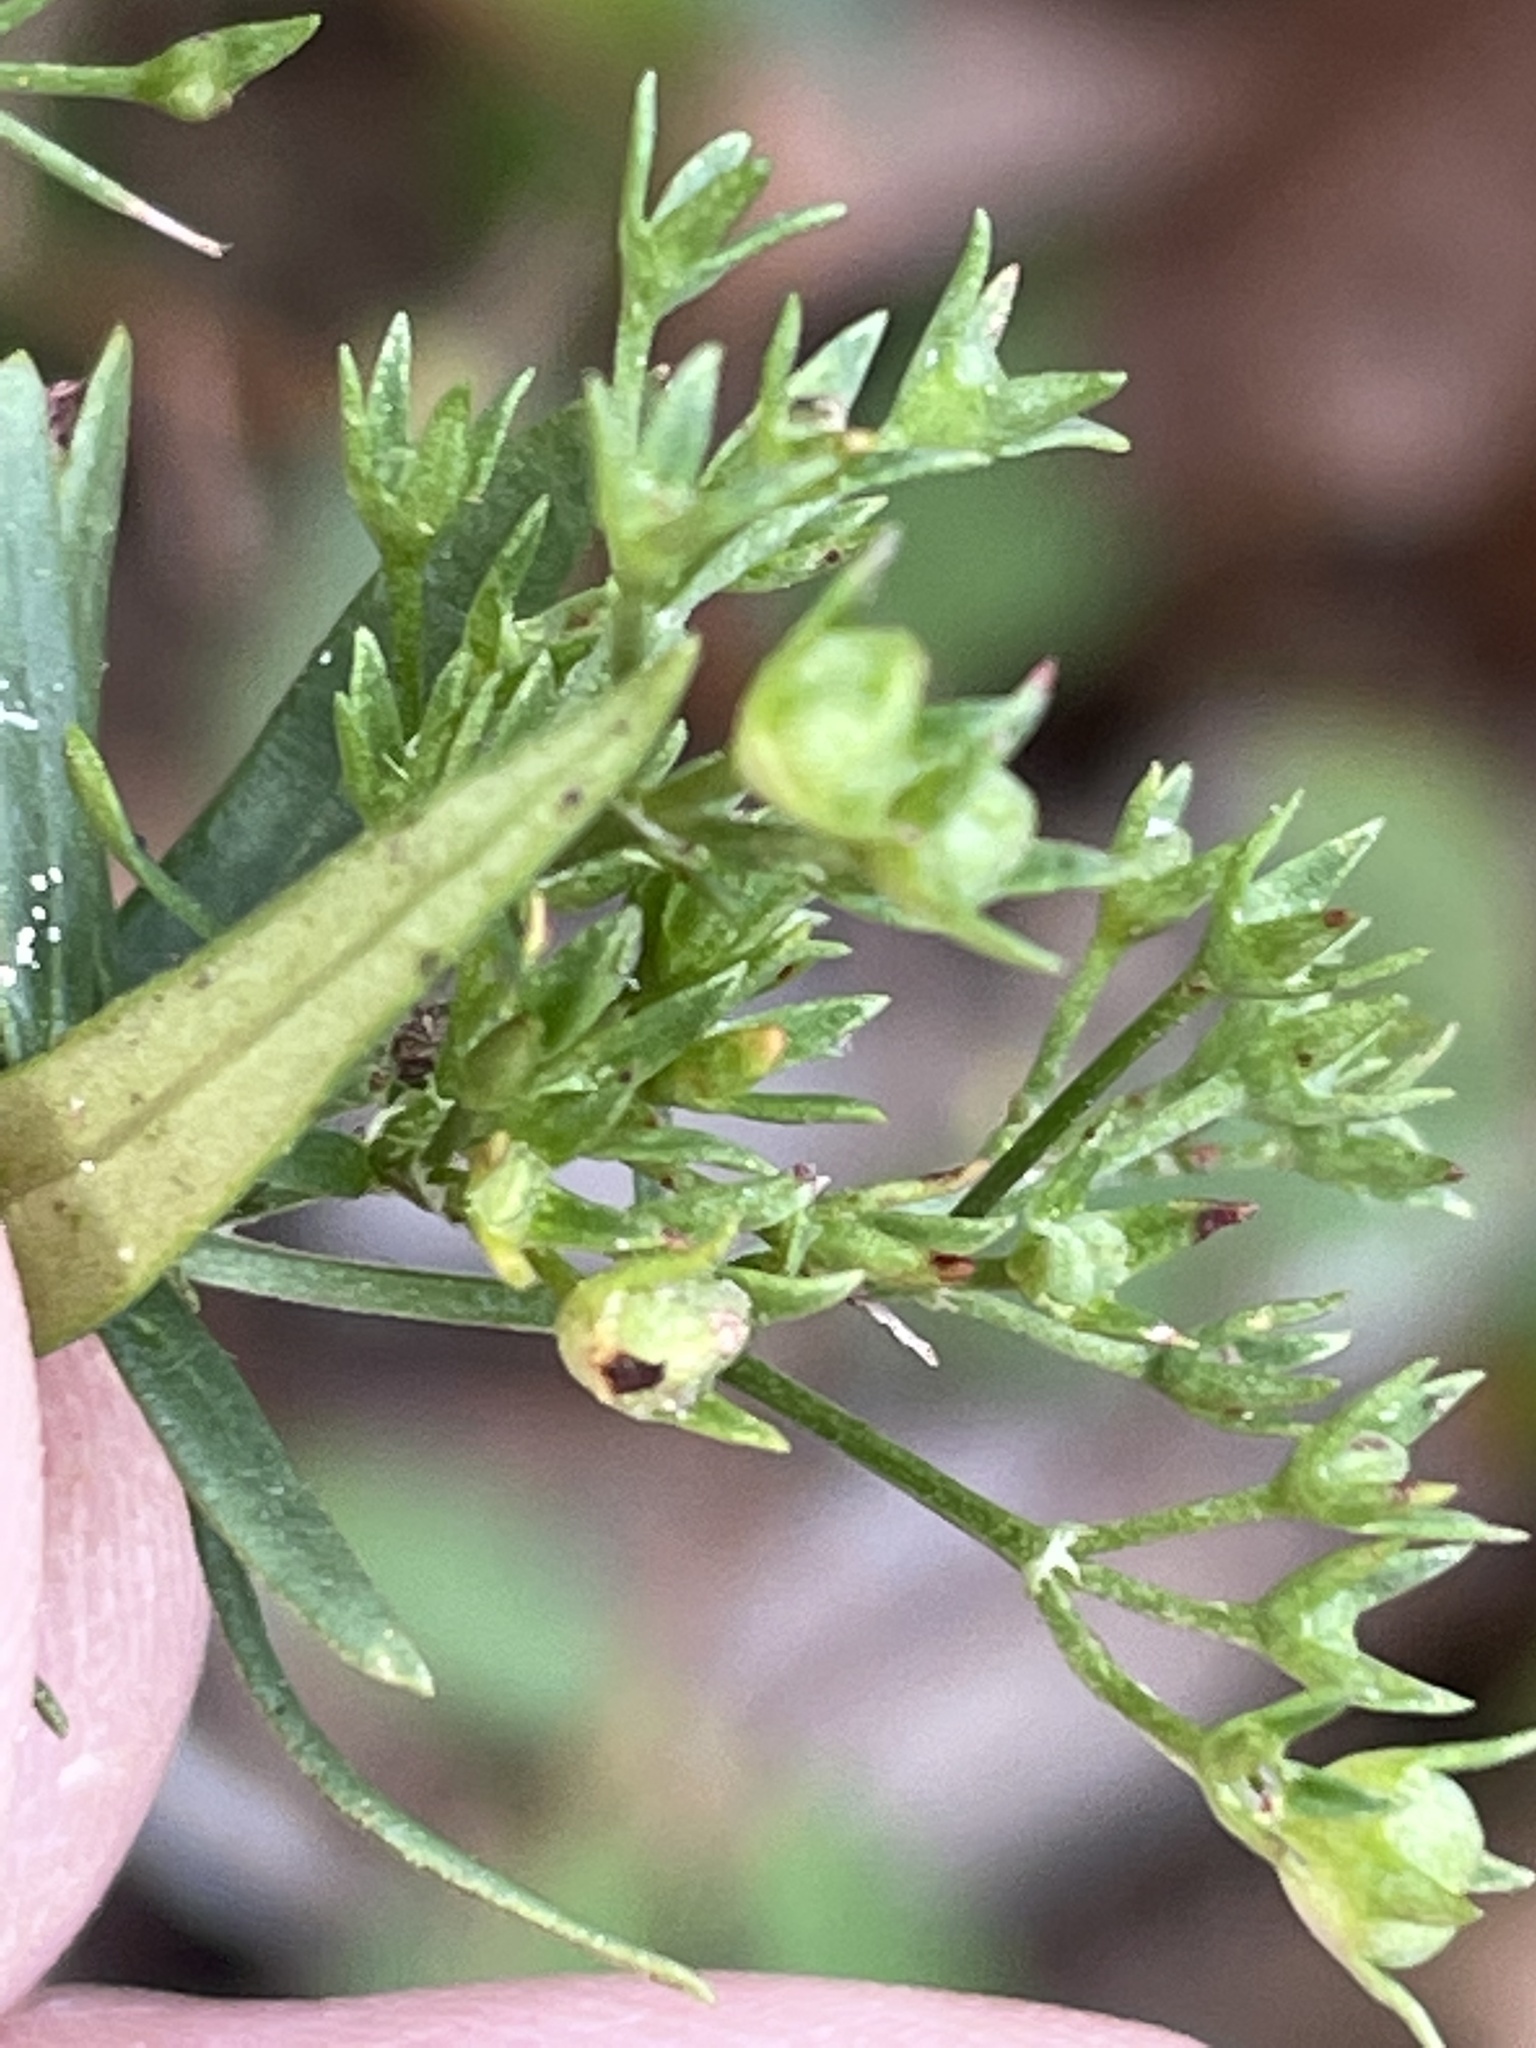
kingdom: Plantae
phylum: Tracheophyta
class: Magnoliopsida
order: Gentianales
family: Rubiaceae
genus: Houstonia
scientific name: Houstonia purpurea
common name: Summer bluet
